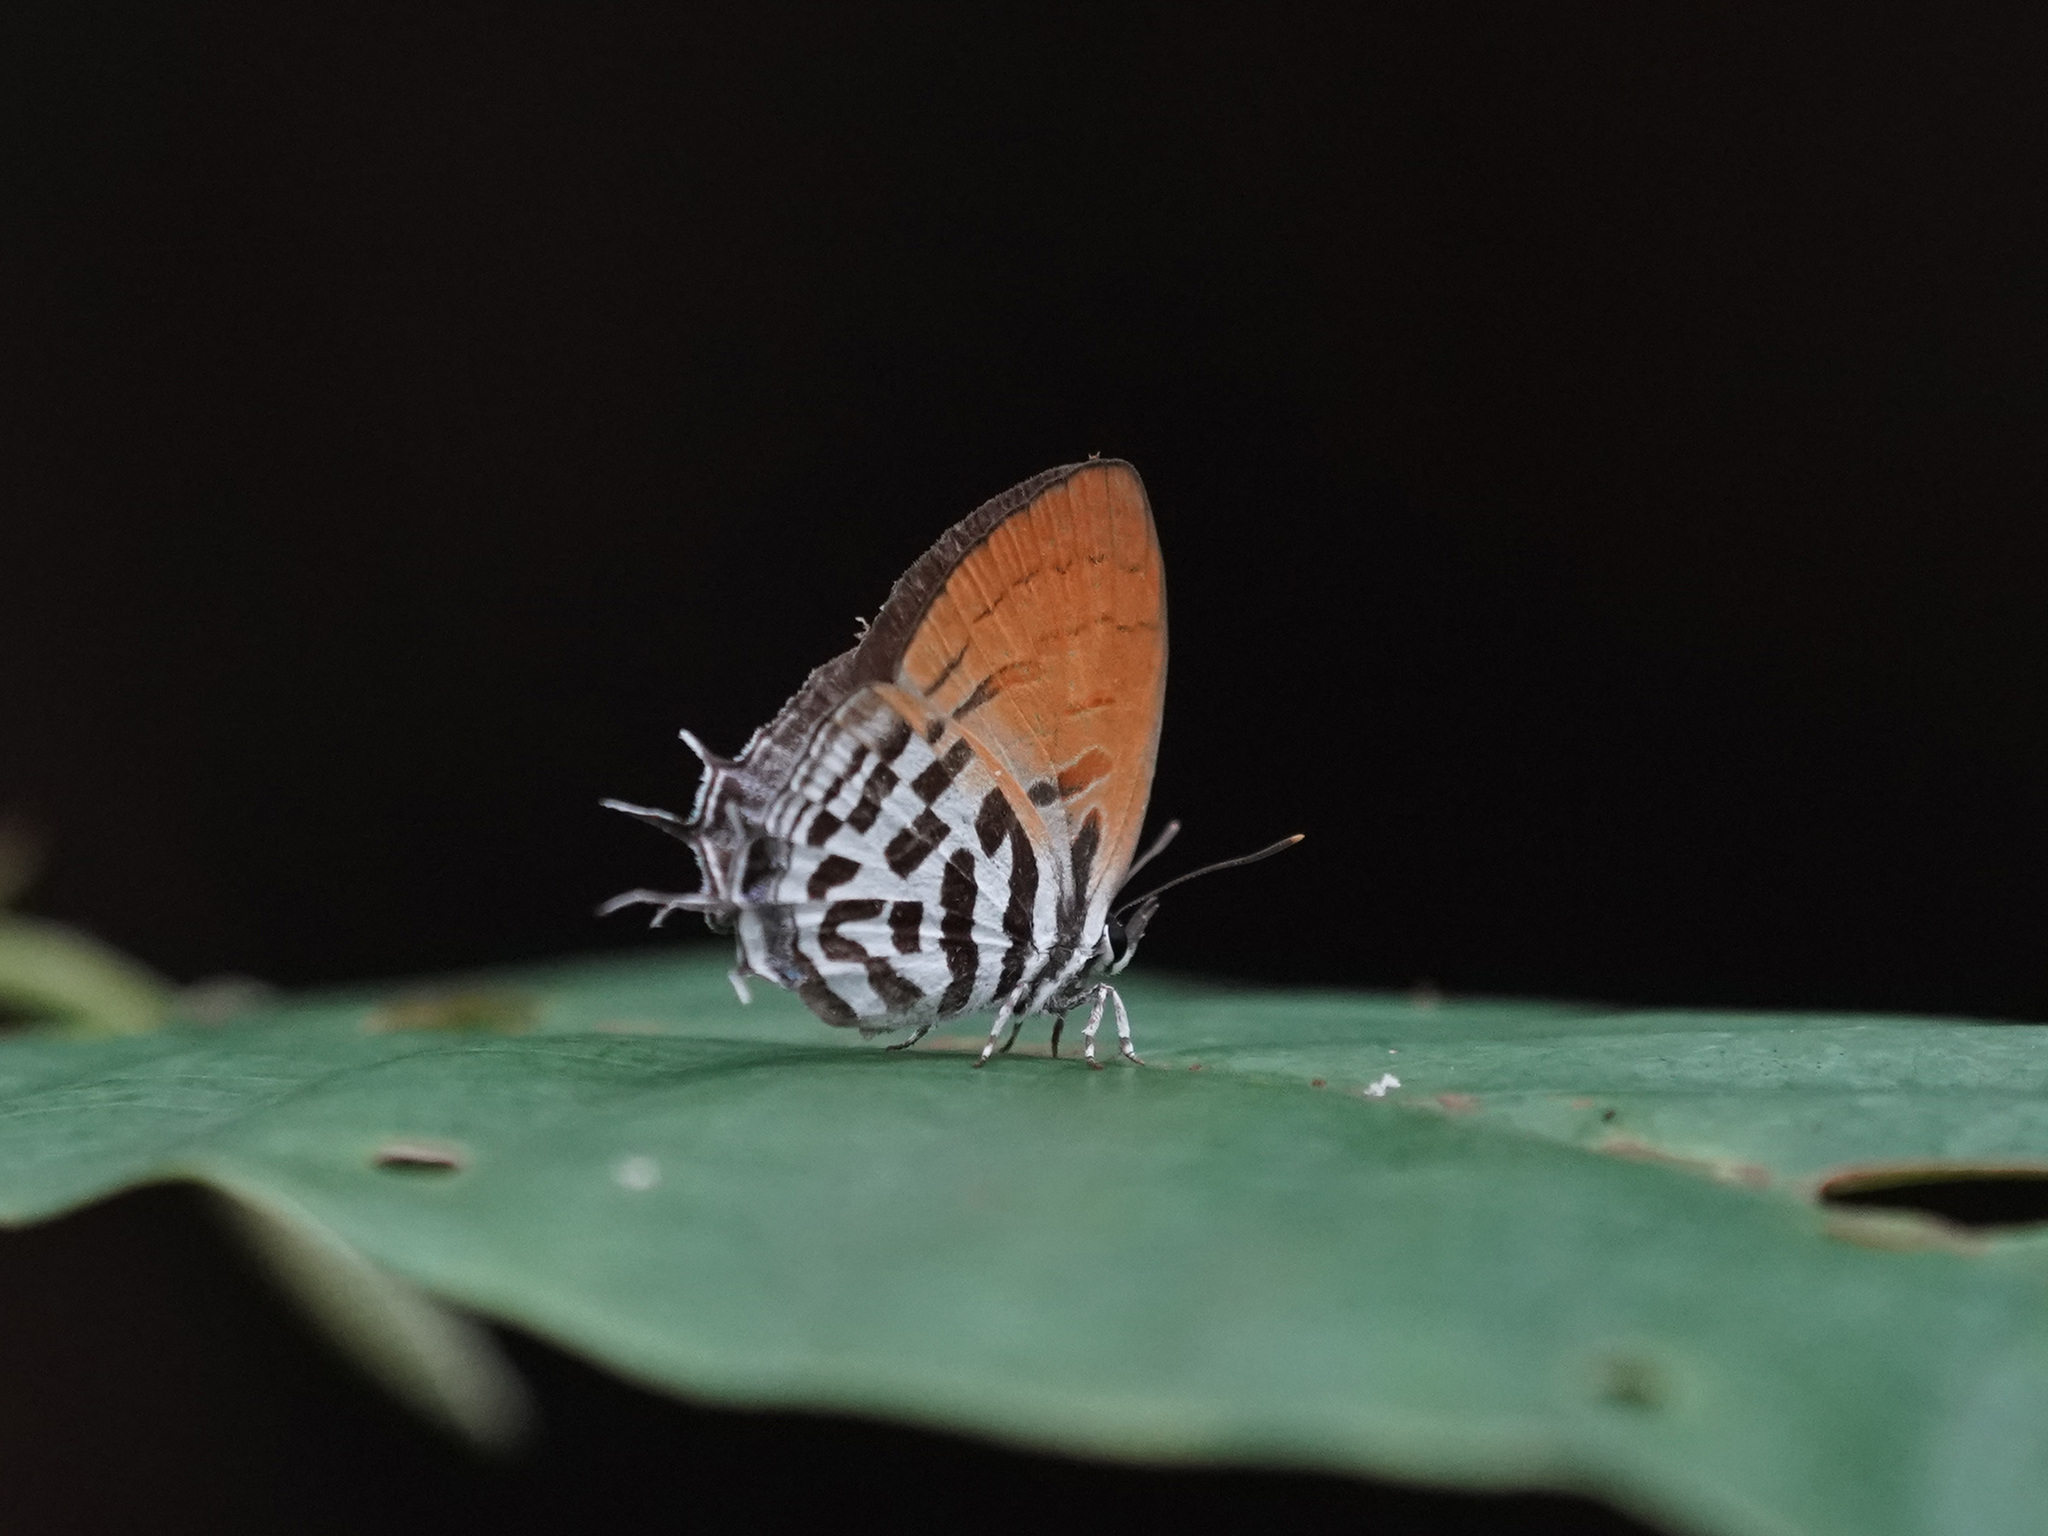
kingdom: Animalia
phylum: Arthropoda
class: Insecta
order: Lepidoptera
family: Lycaenidae
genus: Drupadia
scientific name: Drupadia ravindra
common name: Common posy
